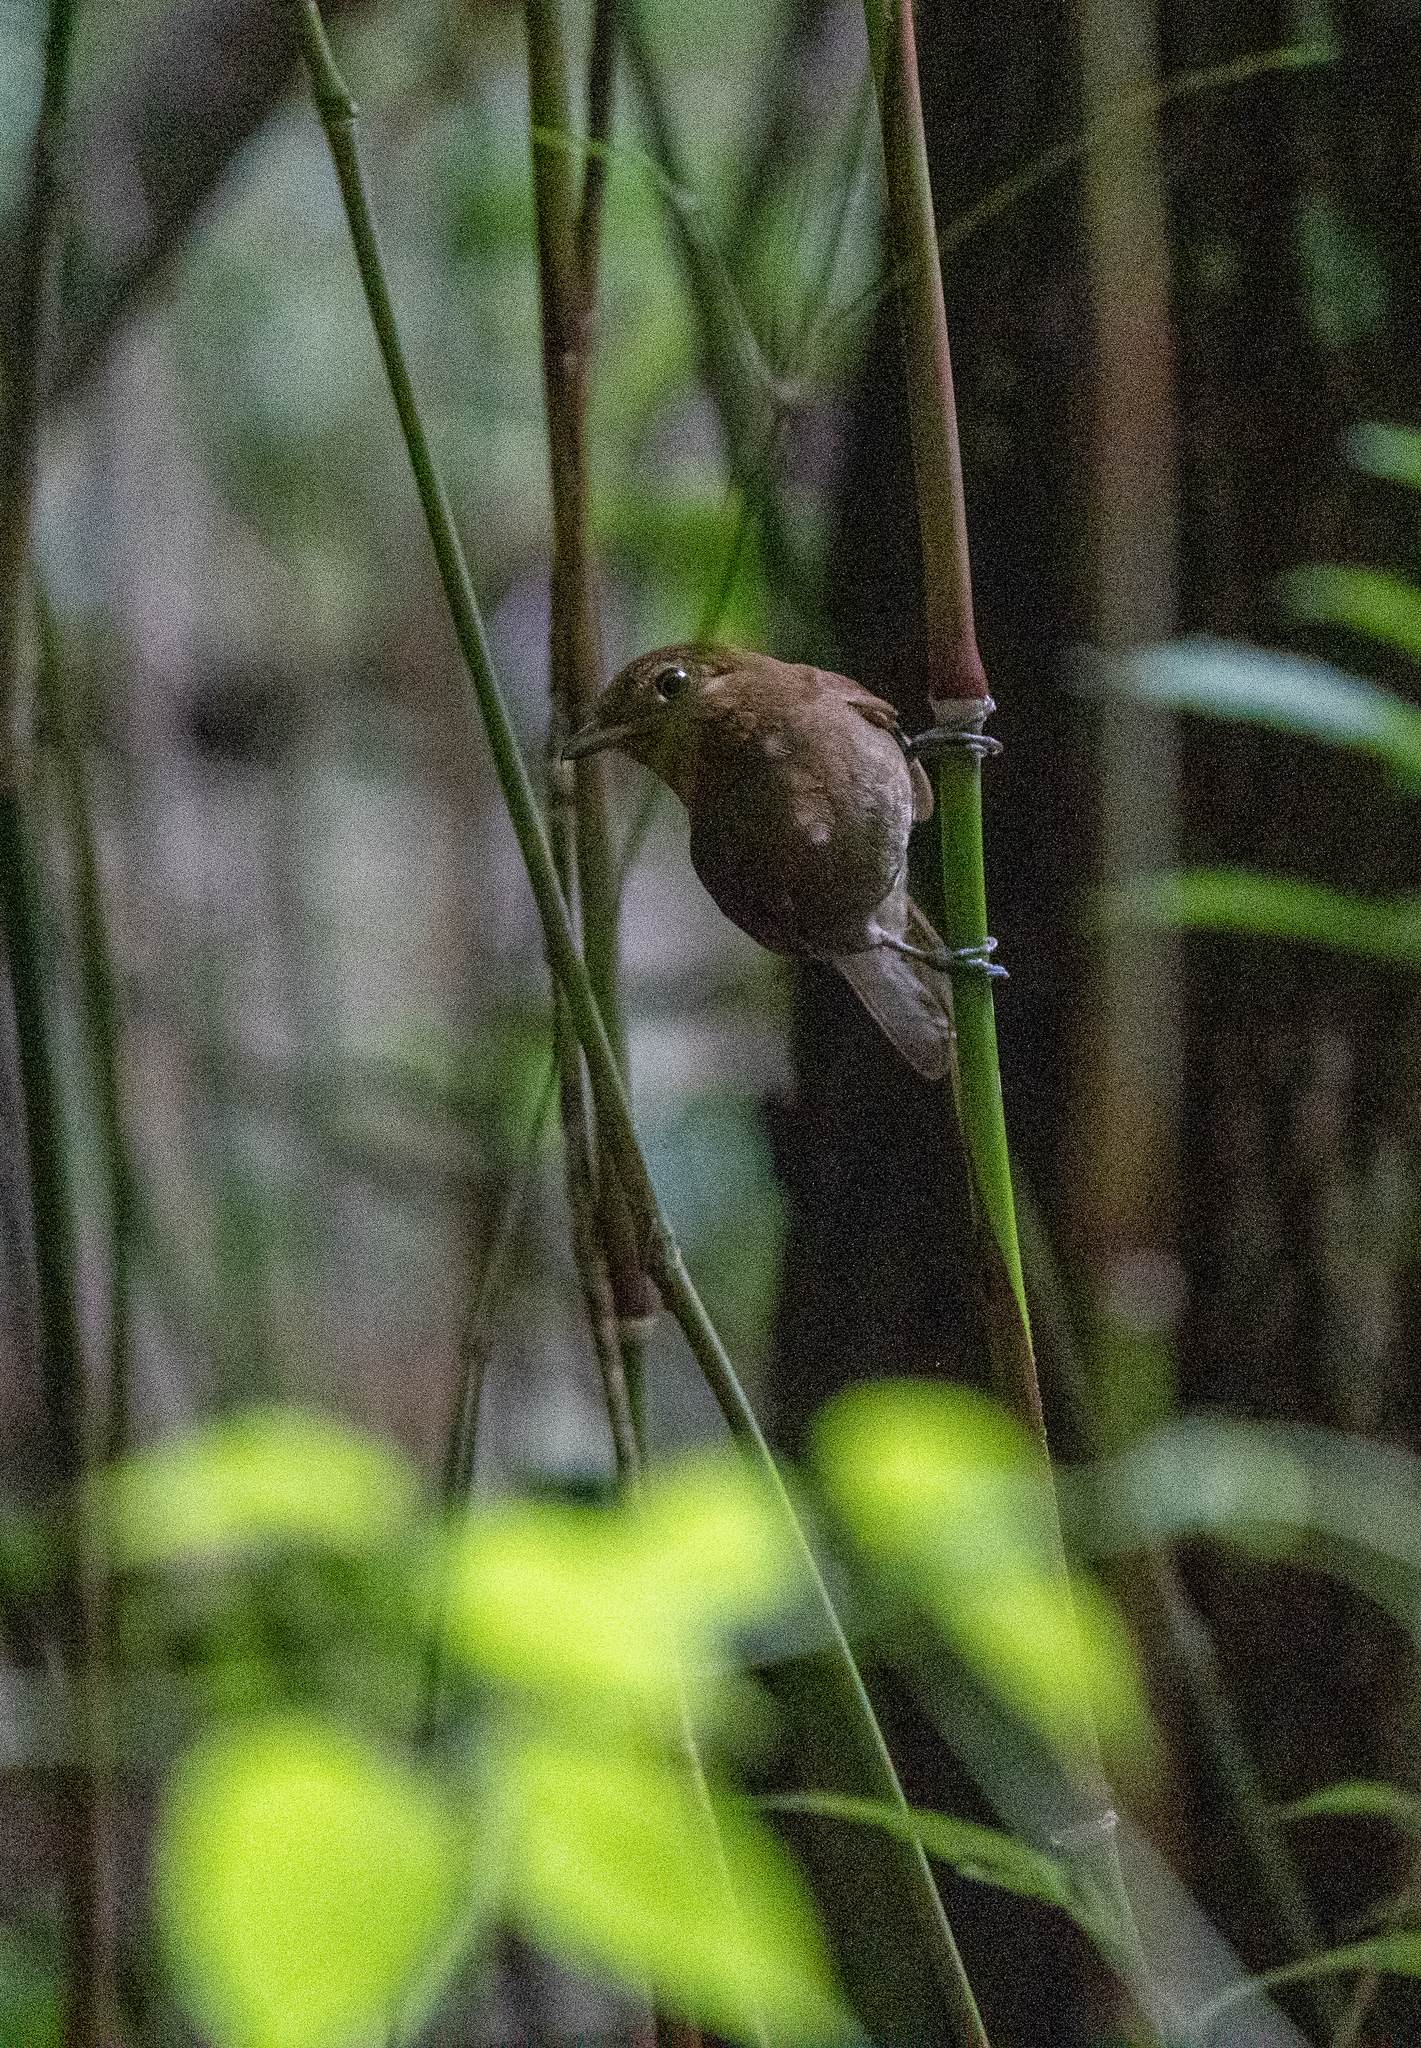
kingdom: Animalia
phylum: Chordata
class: Aves
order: Passeriformes
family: Cotingidae
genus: Schiffornis
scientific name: Schiffornis turdina
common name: Brown-winged schiffornis
